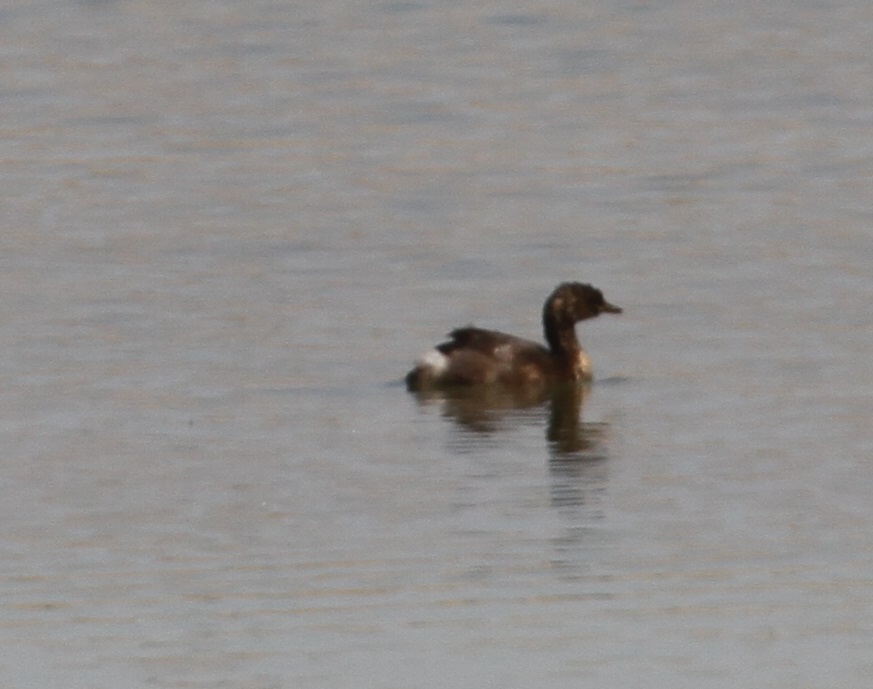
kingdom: Animalia
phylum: Chordata
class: Aves
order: Podicipediformes
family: Podicipedidae
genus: Tachybaptus
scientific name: Tachybaptus ruficollis
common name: Little grebe
